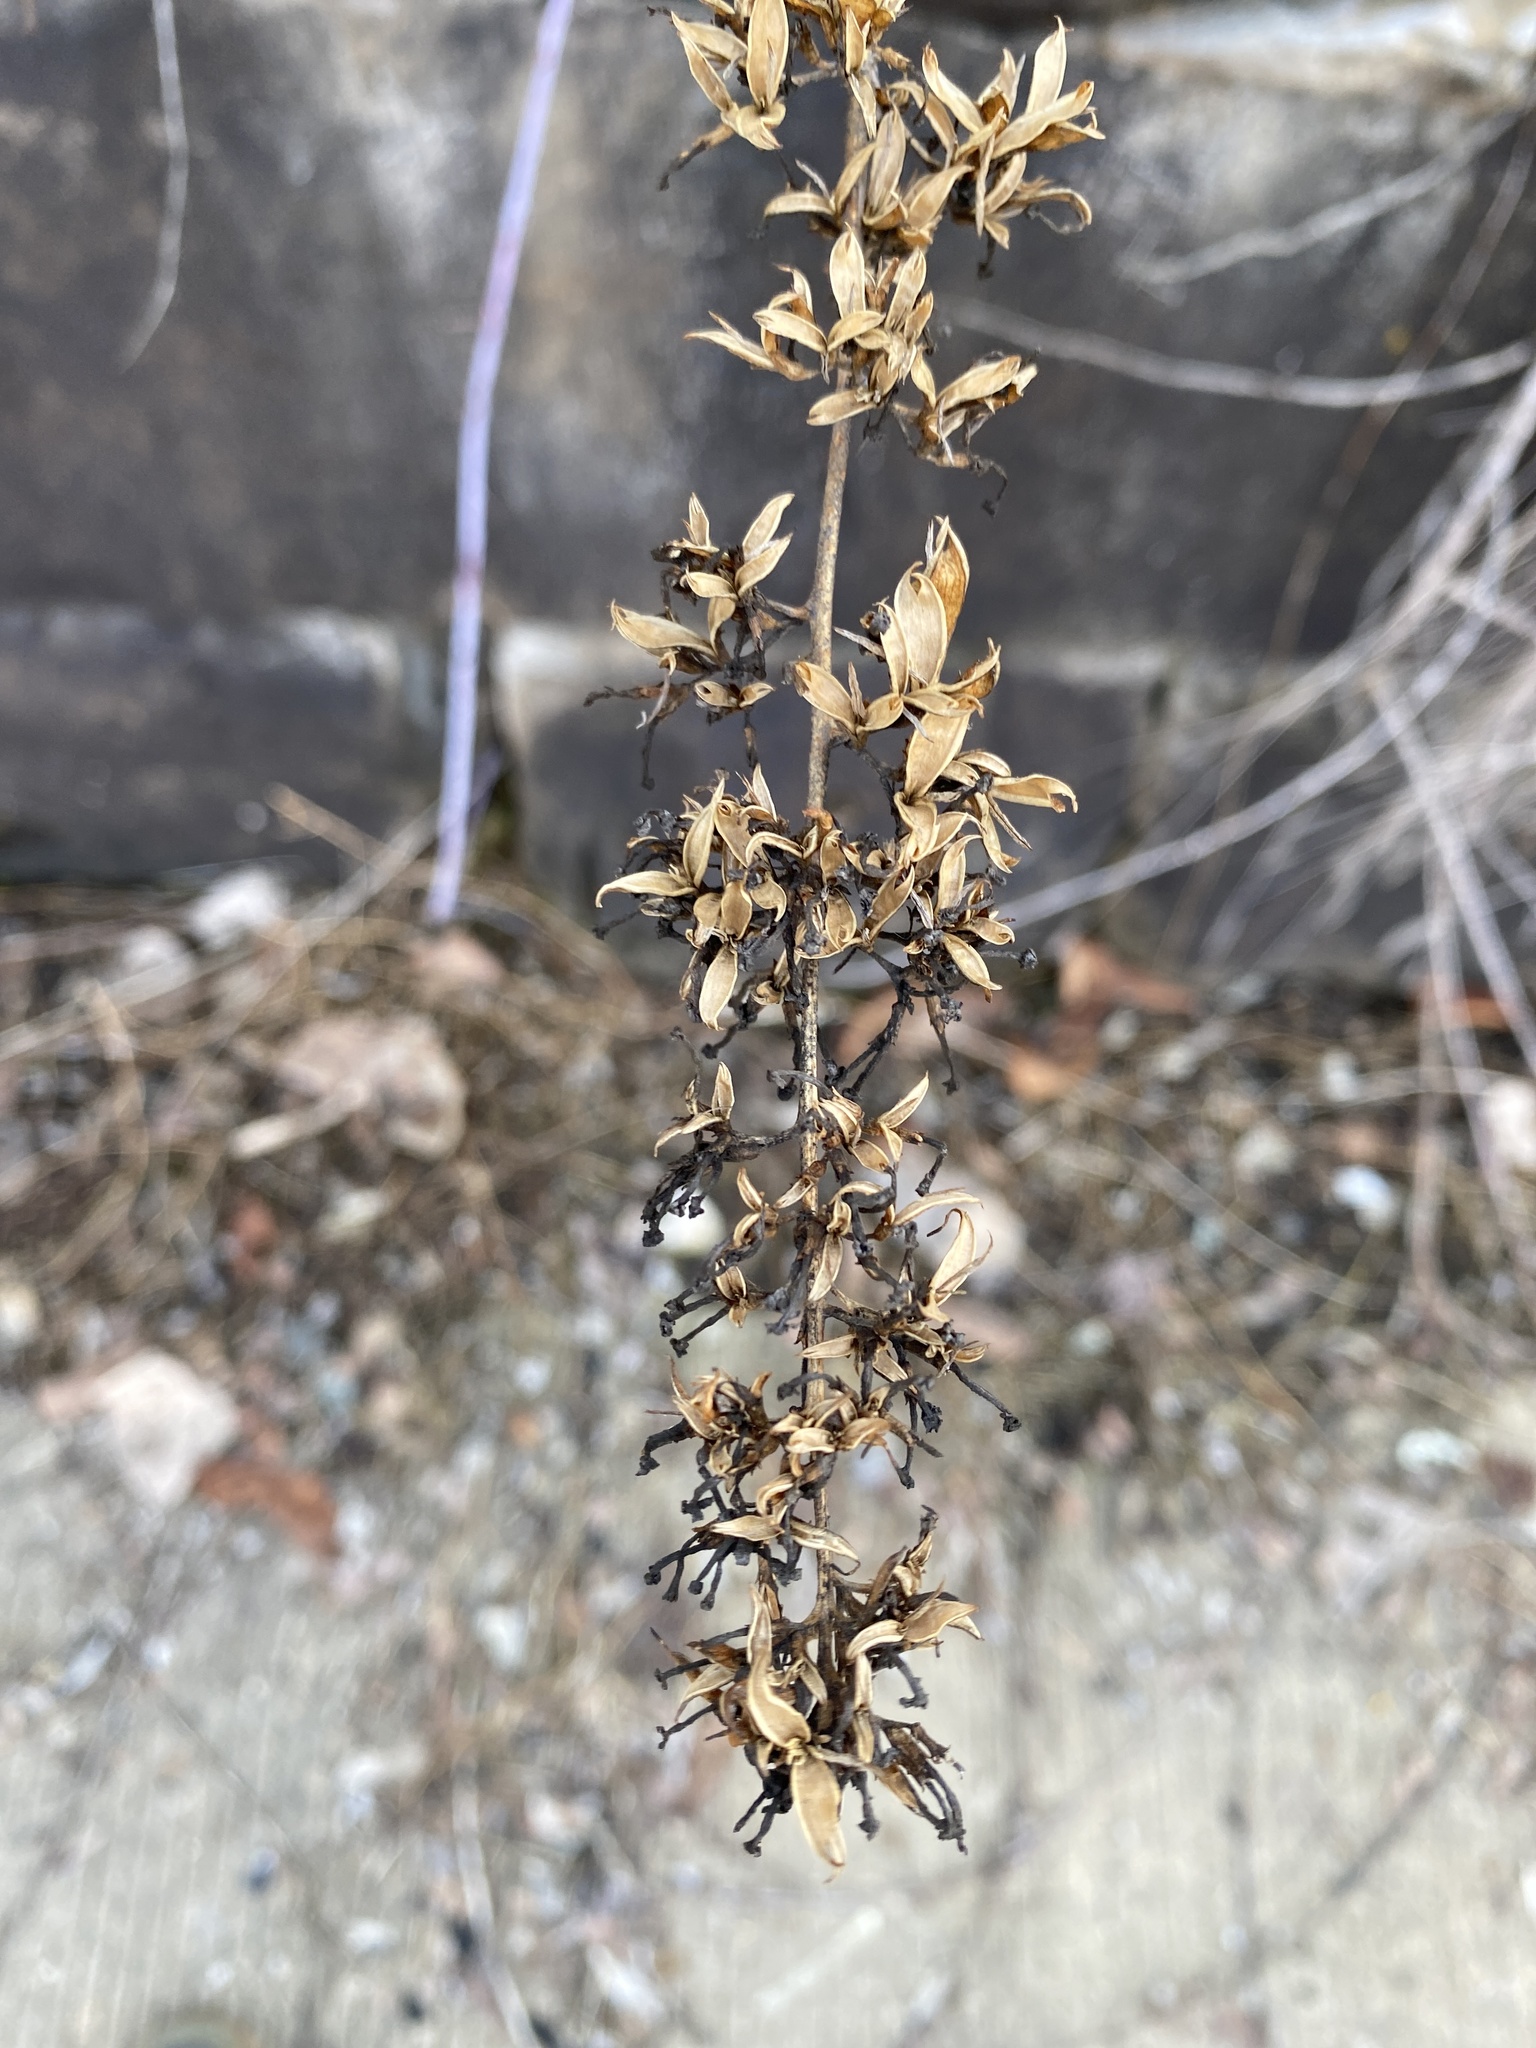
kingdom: Plantae
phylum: Tracheophyta
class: Magnoliopsida
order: Lamiales
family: Scrophulariaceae
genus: Buddleja
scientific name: Buddleja davidii
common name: Butterfly-bush
